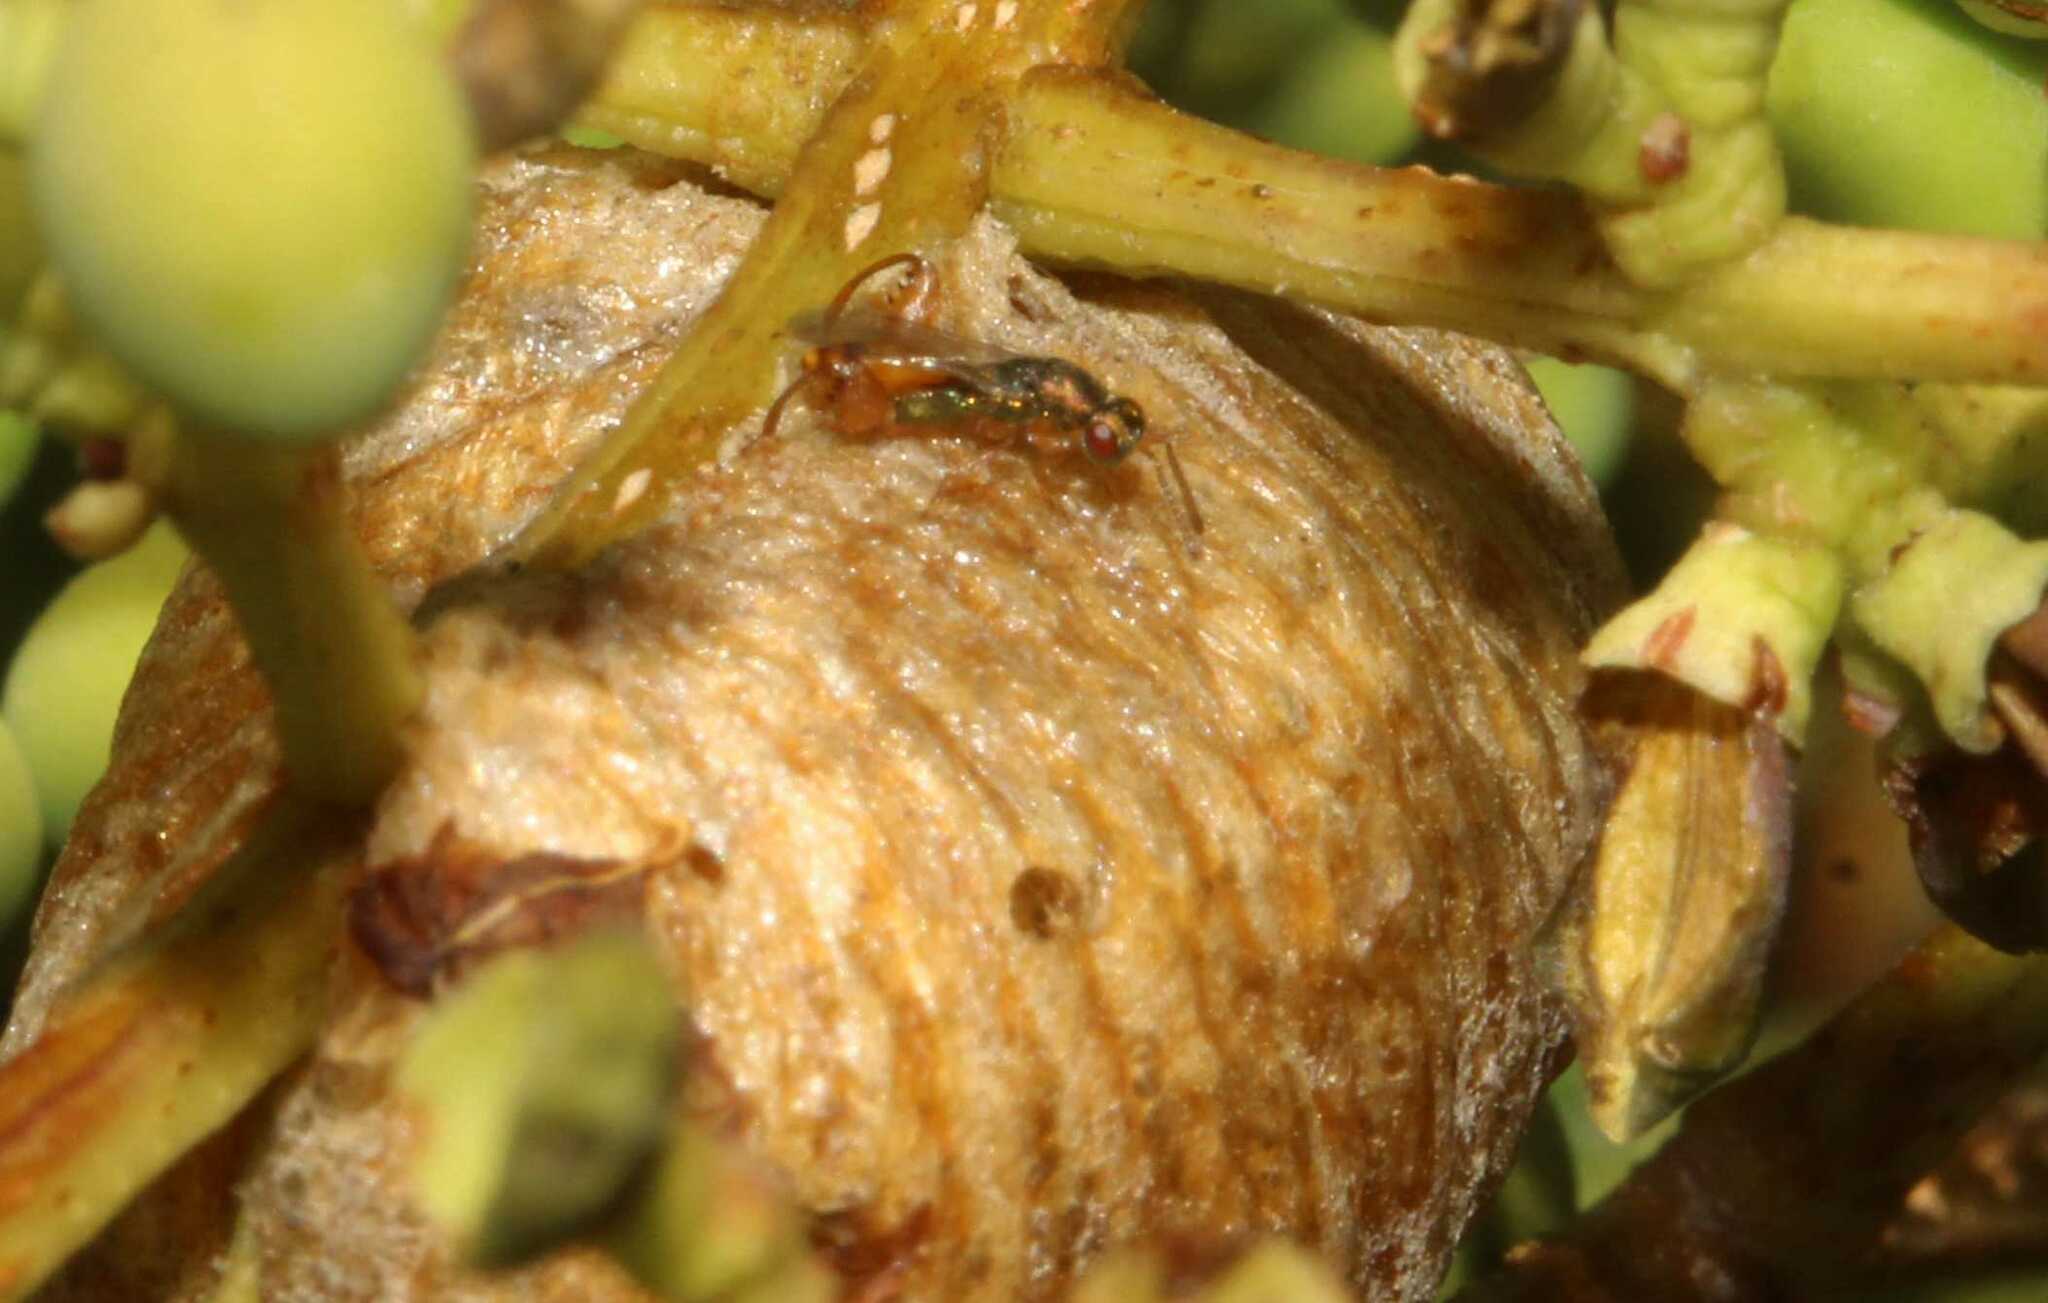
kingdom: Animalia
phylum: Arthropoda
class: Insecta
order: Hymenoptera
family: Torymidae
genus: Podagrion
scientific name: Podagrion
